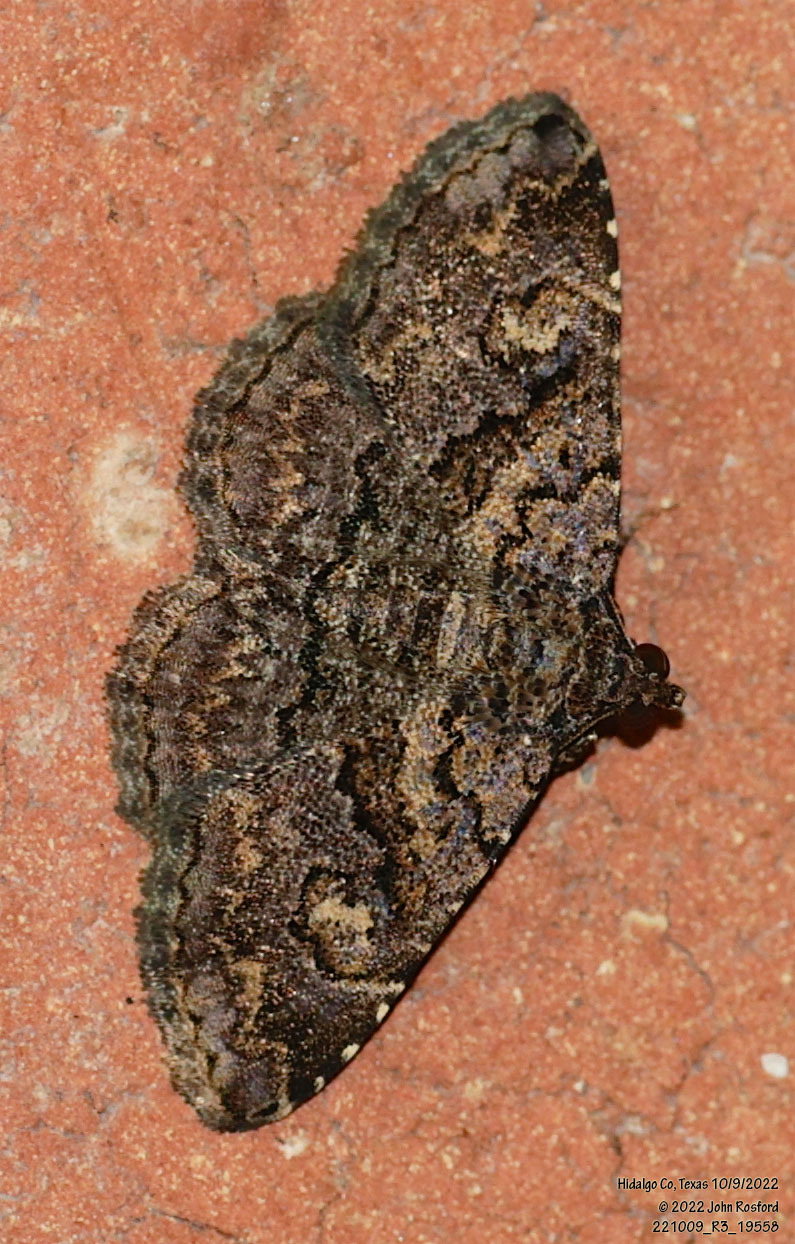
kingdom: Animalia
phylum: Arthropoda
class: Insecta
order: Lepidoptera
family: Erebidae
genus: Toxonprucha
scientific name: Toxonprucha excavata
